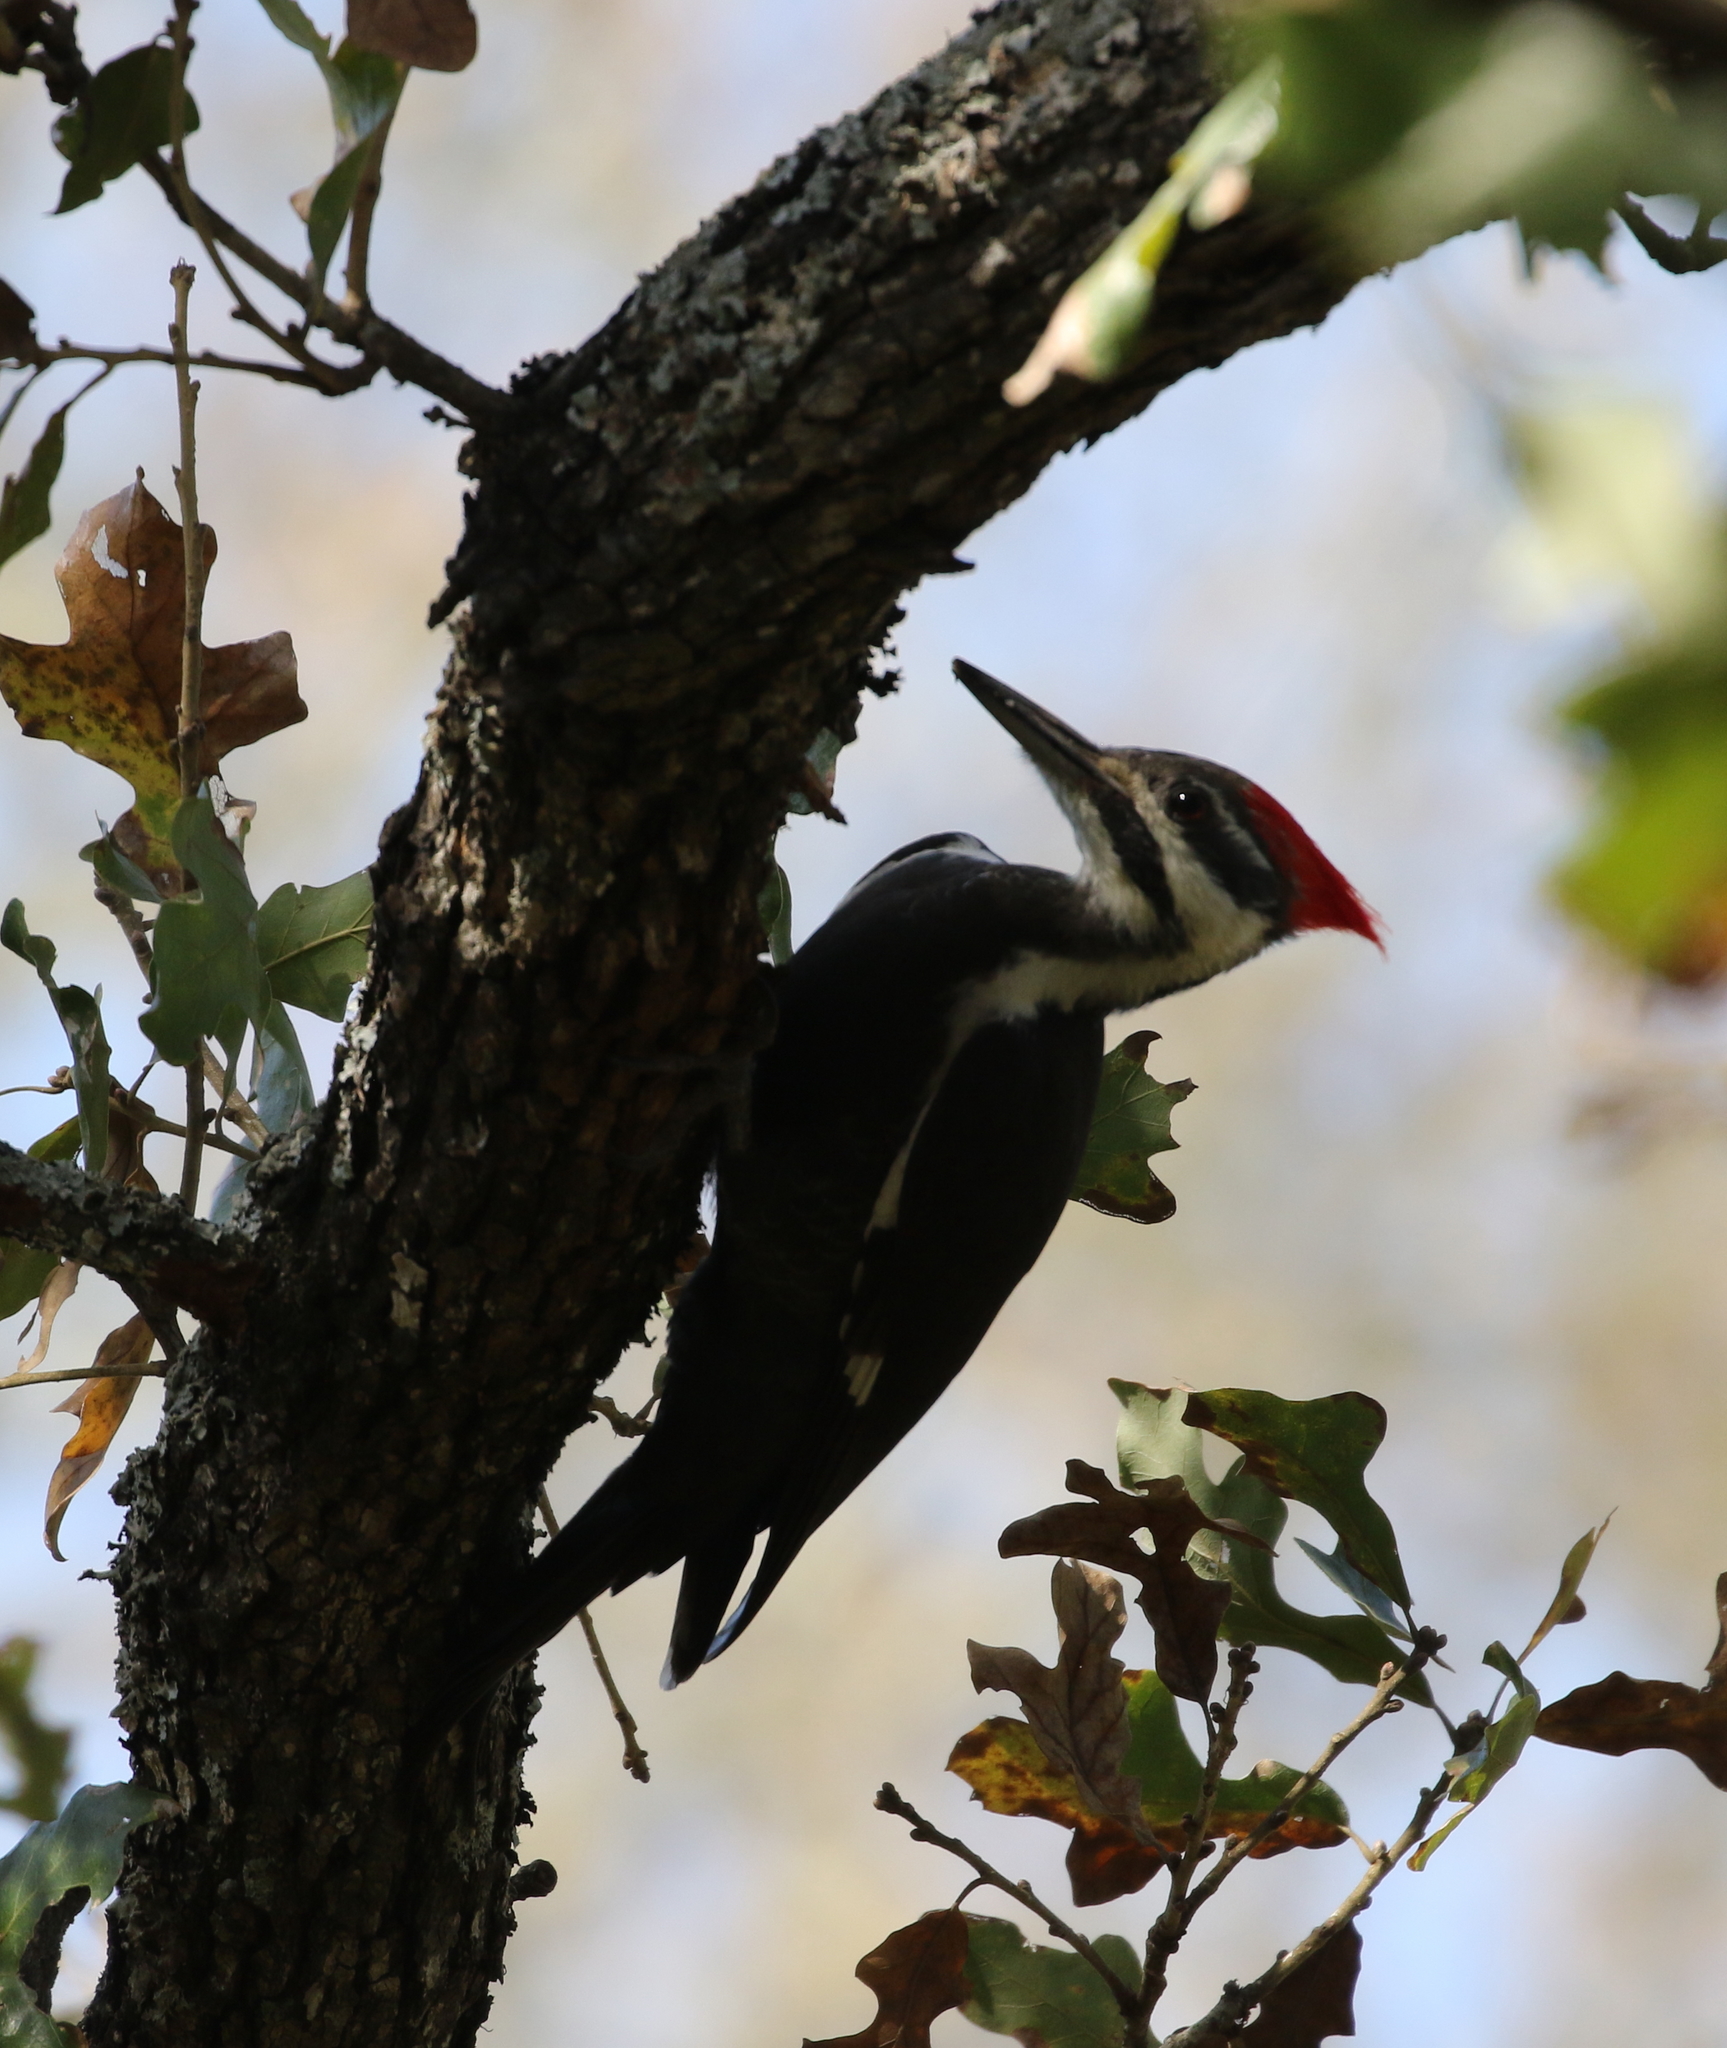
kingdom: Animalia
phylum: Chordata
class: Aves
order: Piciformes
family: Picidae
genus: Dryocopus
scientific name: Dryocopus pileatus
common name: Pileated woodpecker
